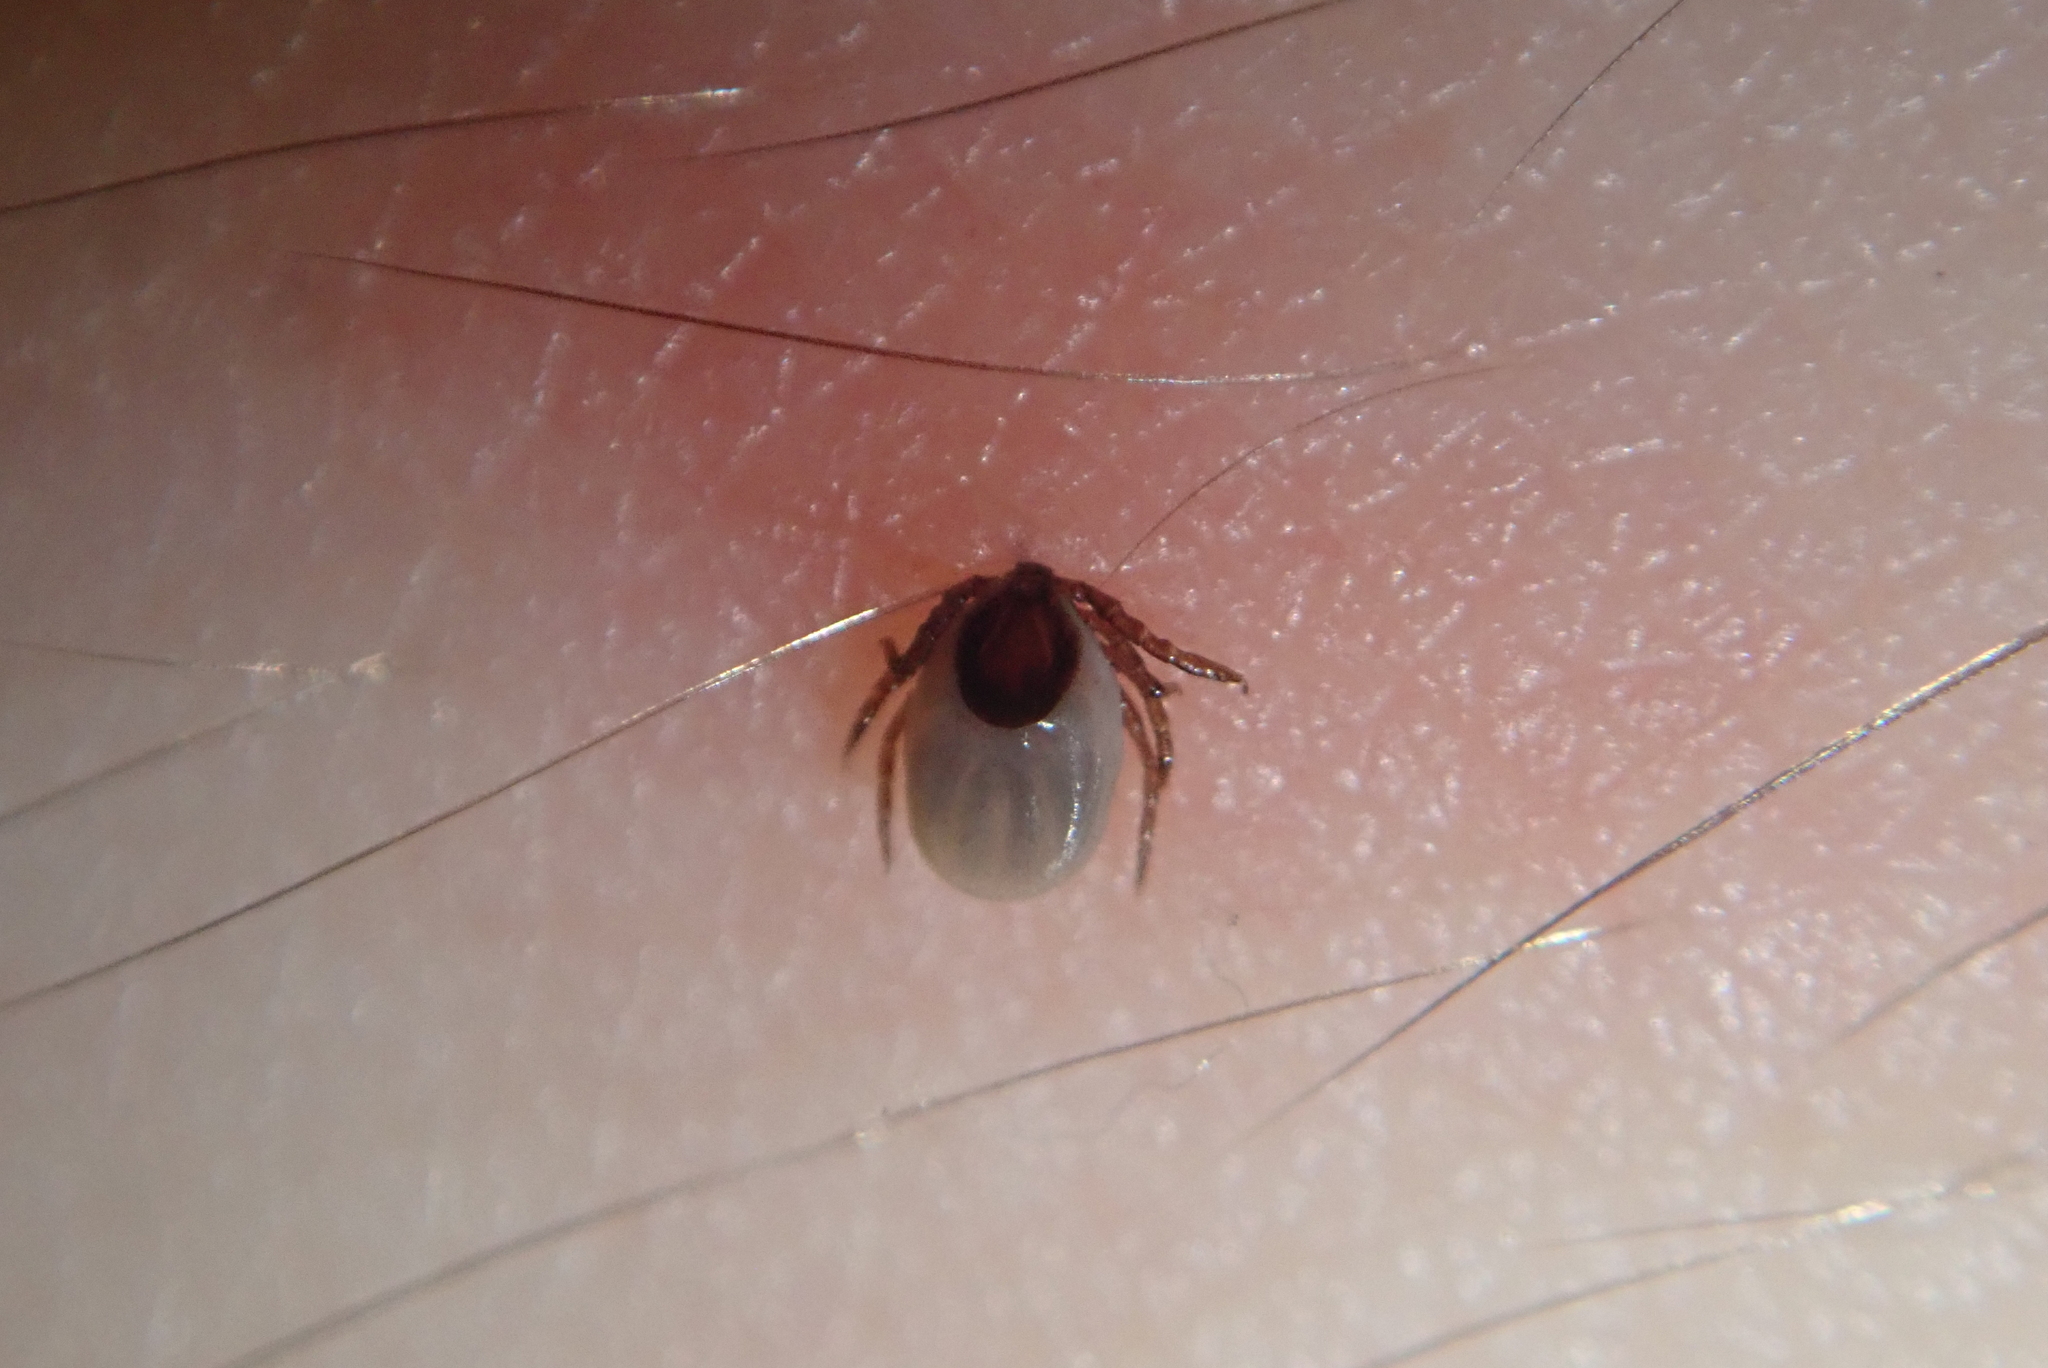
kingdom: Animalia
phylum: Arthropoda
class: Arachnida
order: Ixodida
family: Ixodidae
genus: Ixodes
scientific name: Ixodes scapularis
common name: Black legged tick
